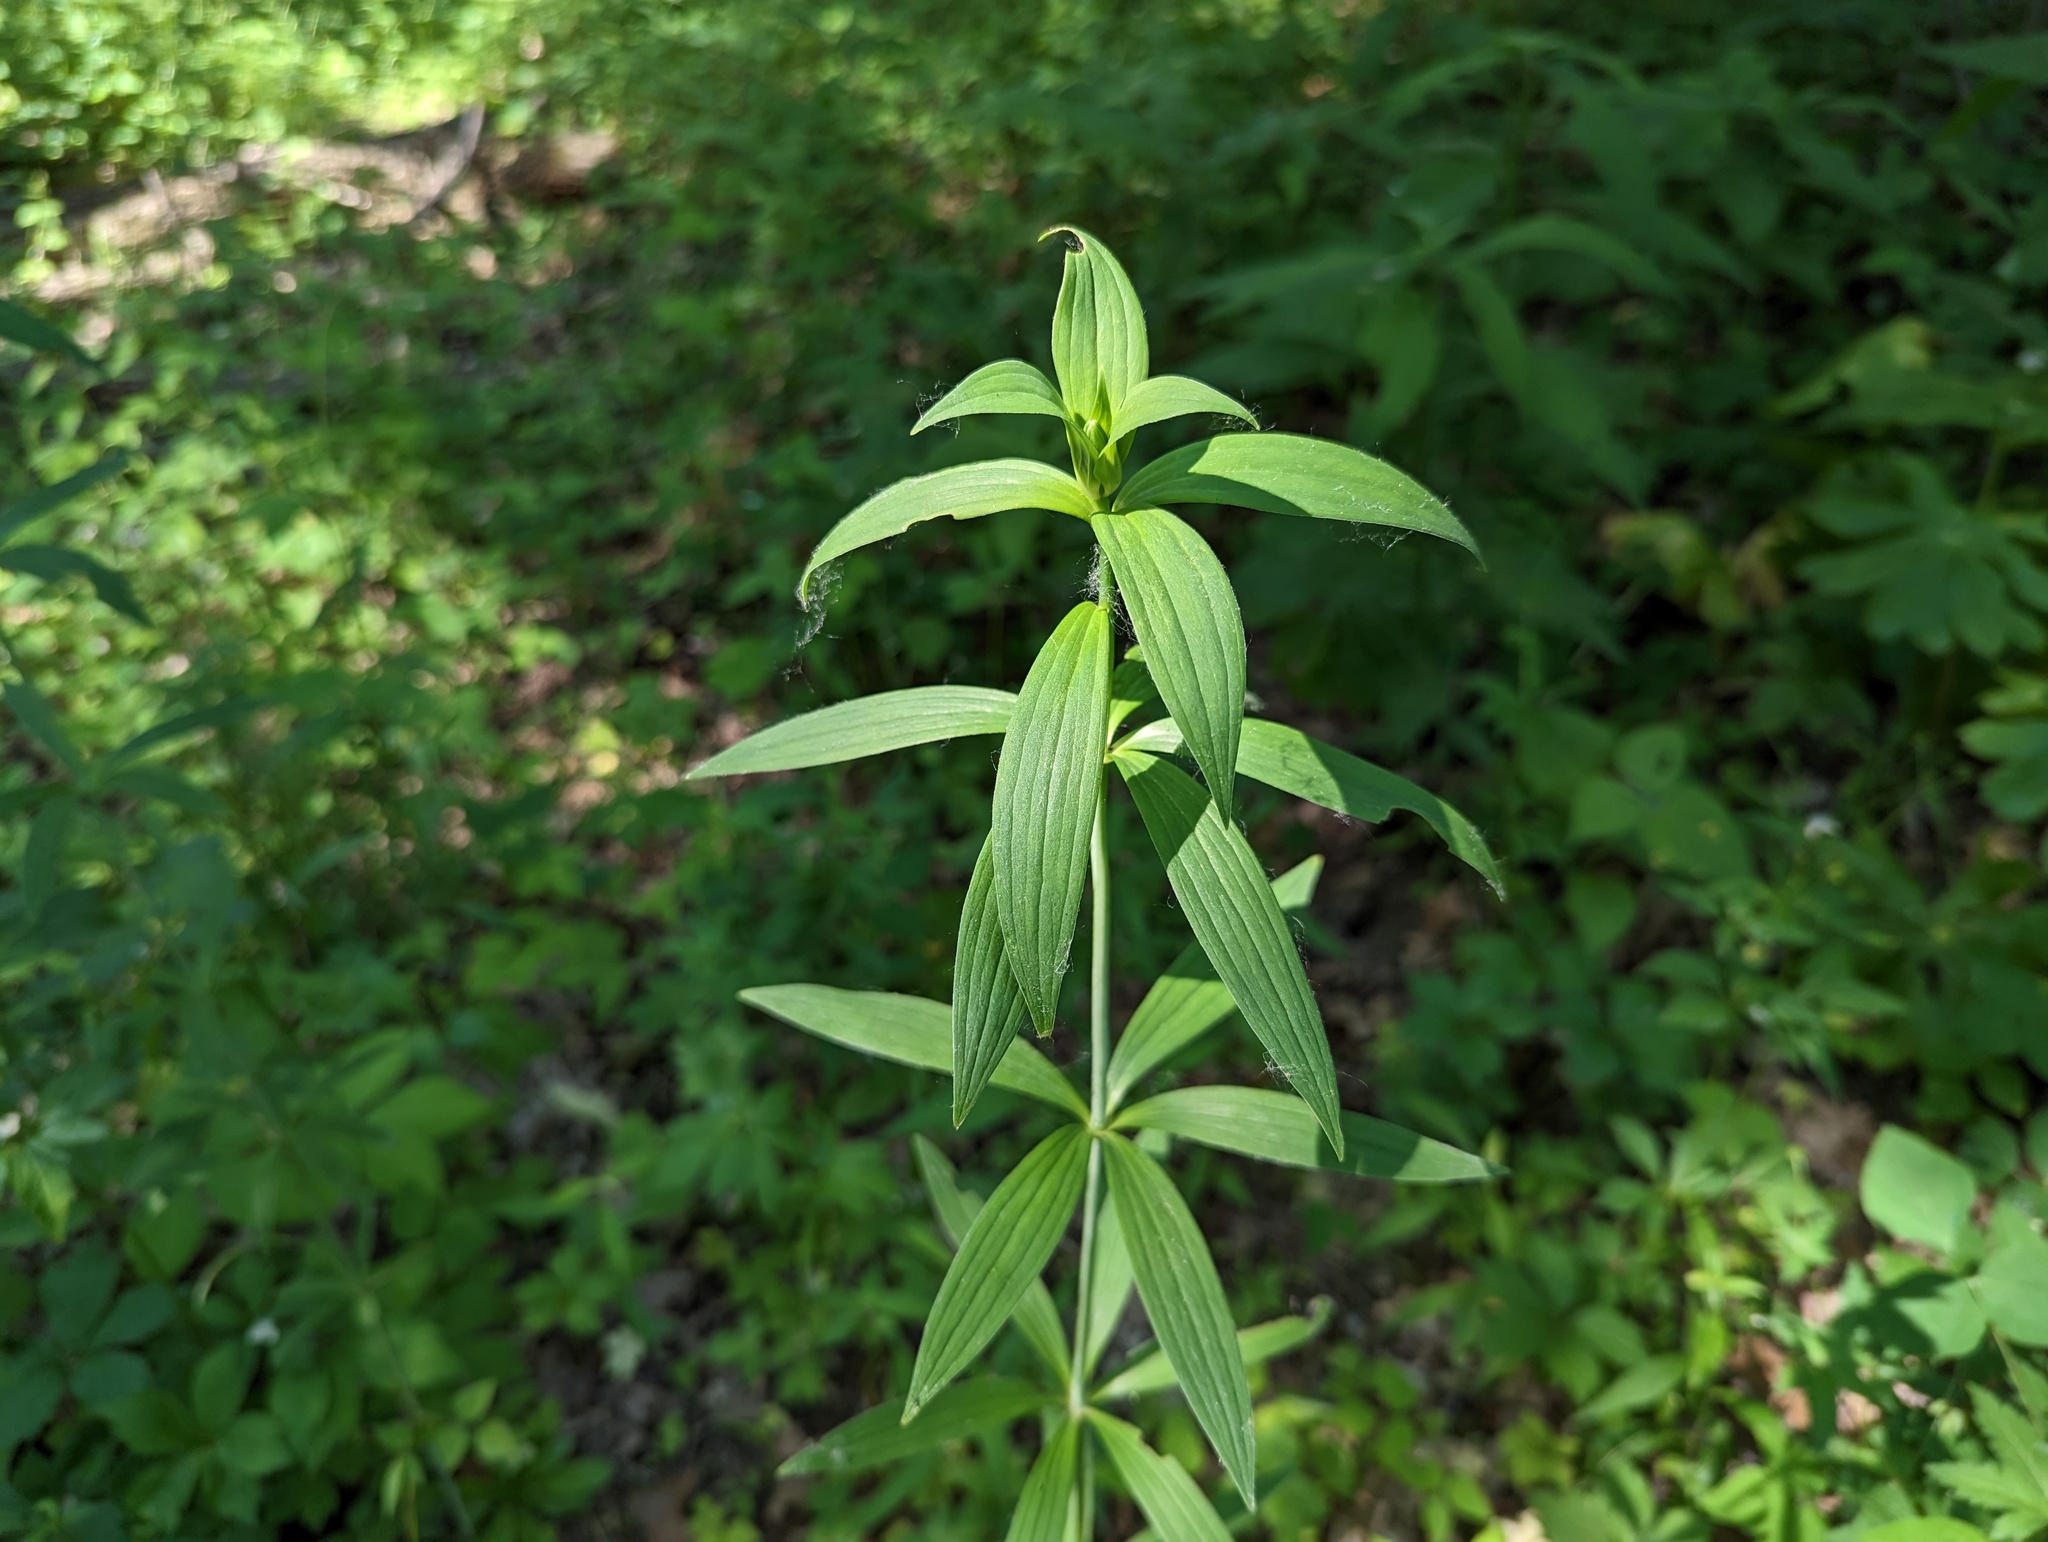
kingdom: Plantae
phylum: Tracheophyta
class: Liliopsida
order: Liliales
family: Liliaceae
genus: Lilium
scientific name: Lilium michiganense
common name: Michigan lily
